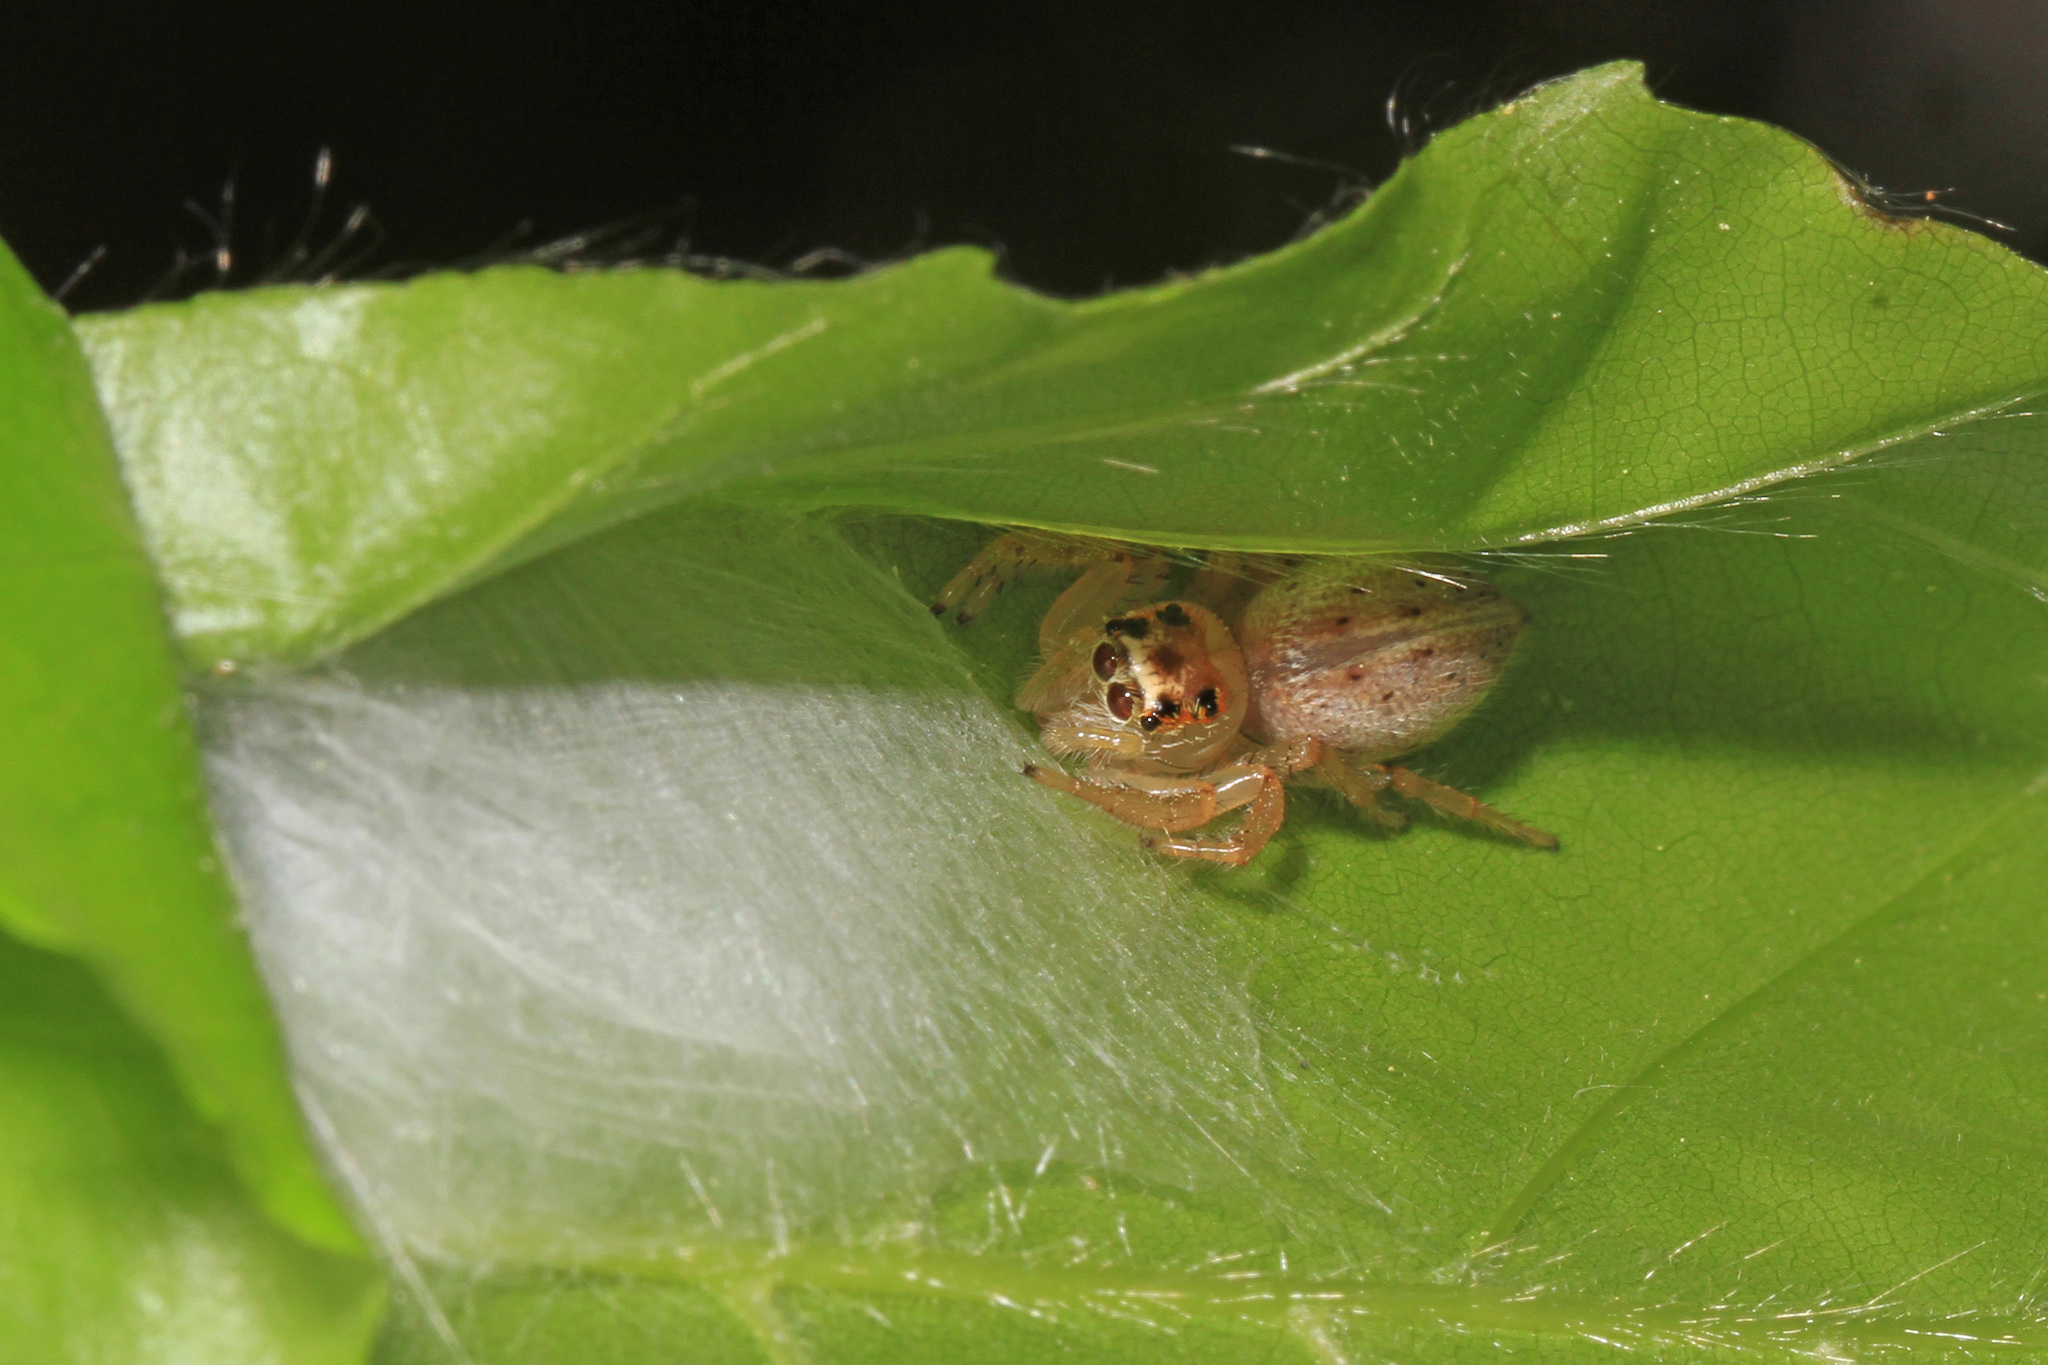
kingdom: Animalia
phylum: Arthropoda
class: Arachnida
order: Araneae
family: Salticidae
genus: Colonus
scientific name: Colonus sylvanus
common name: Jumping spiders
